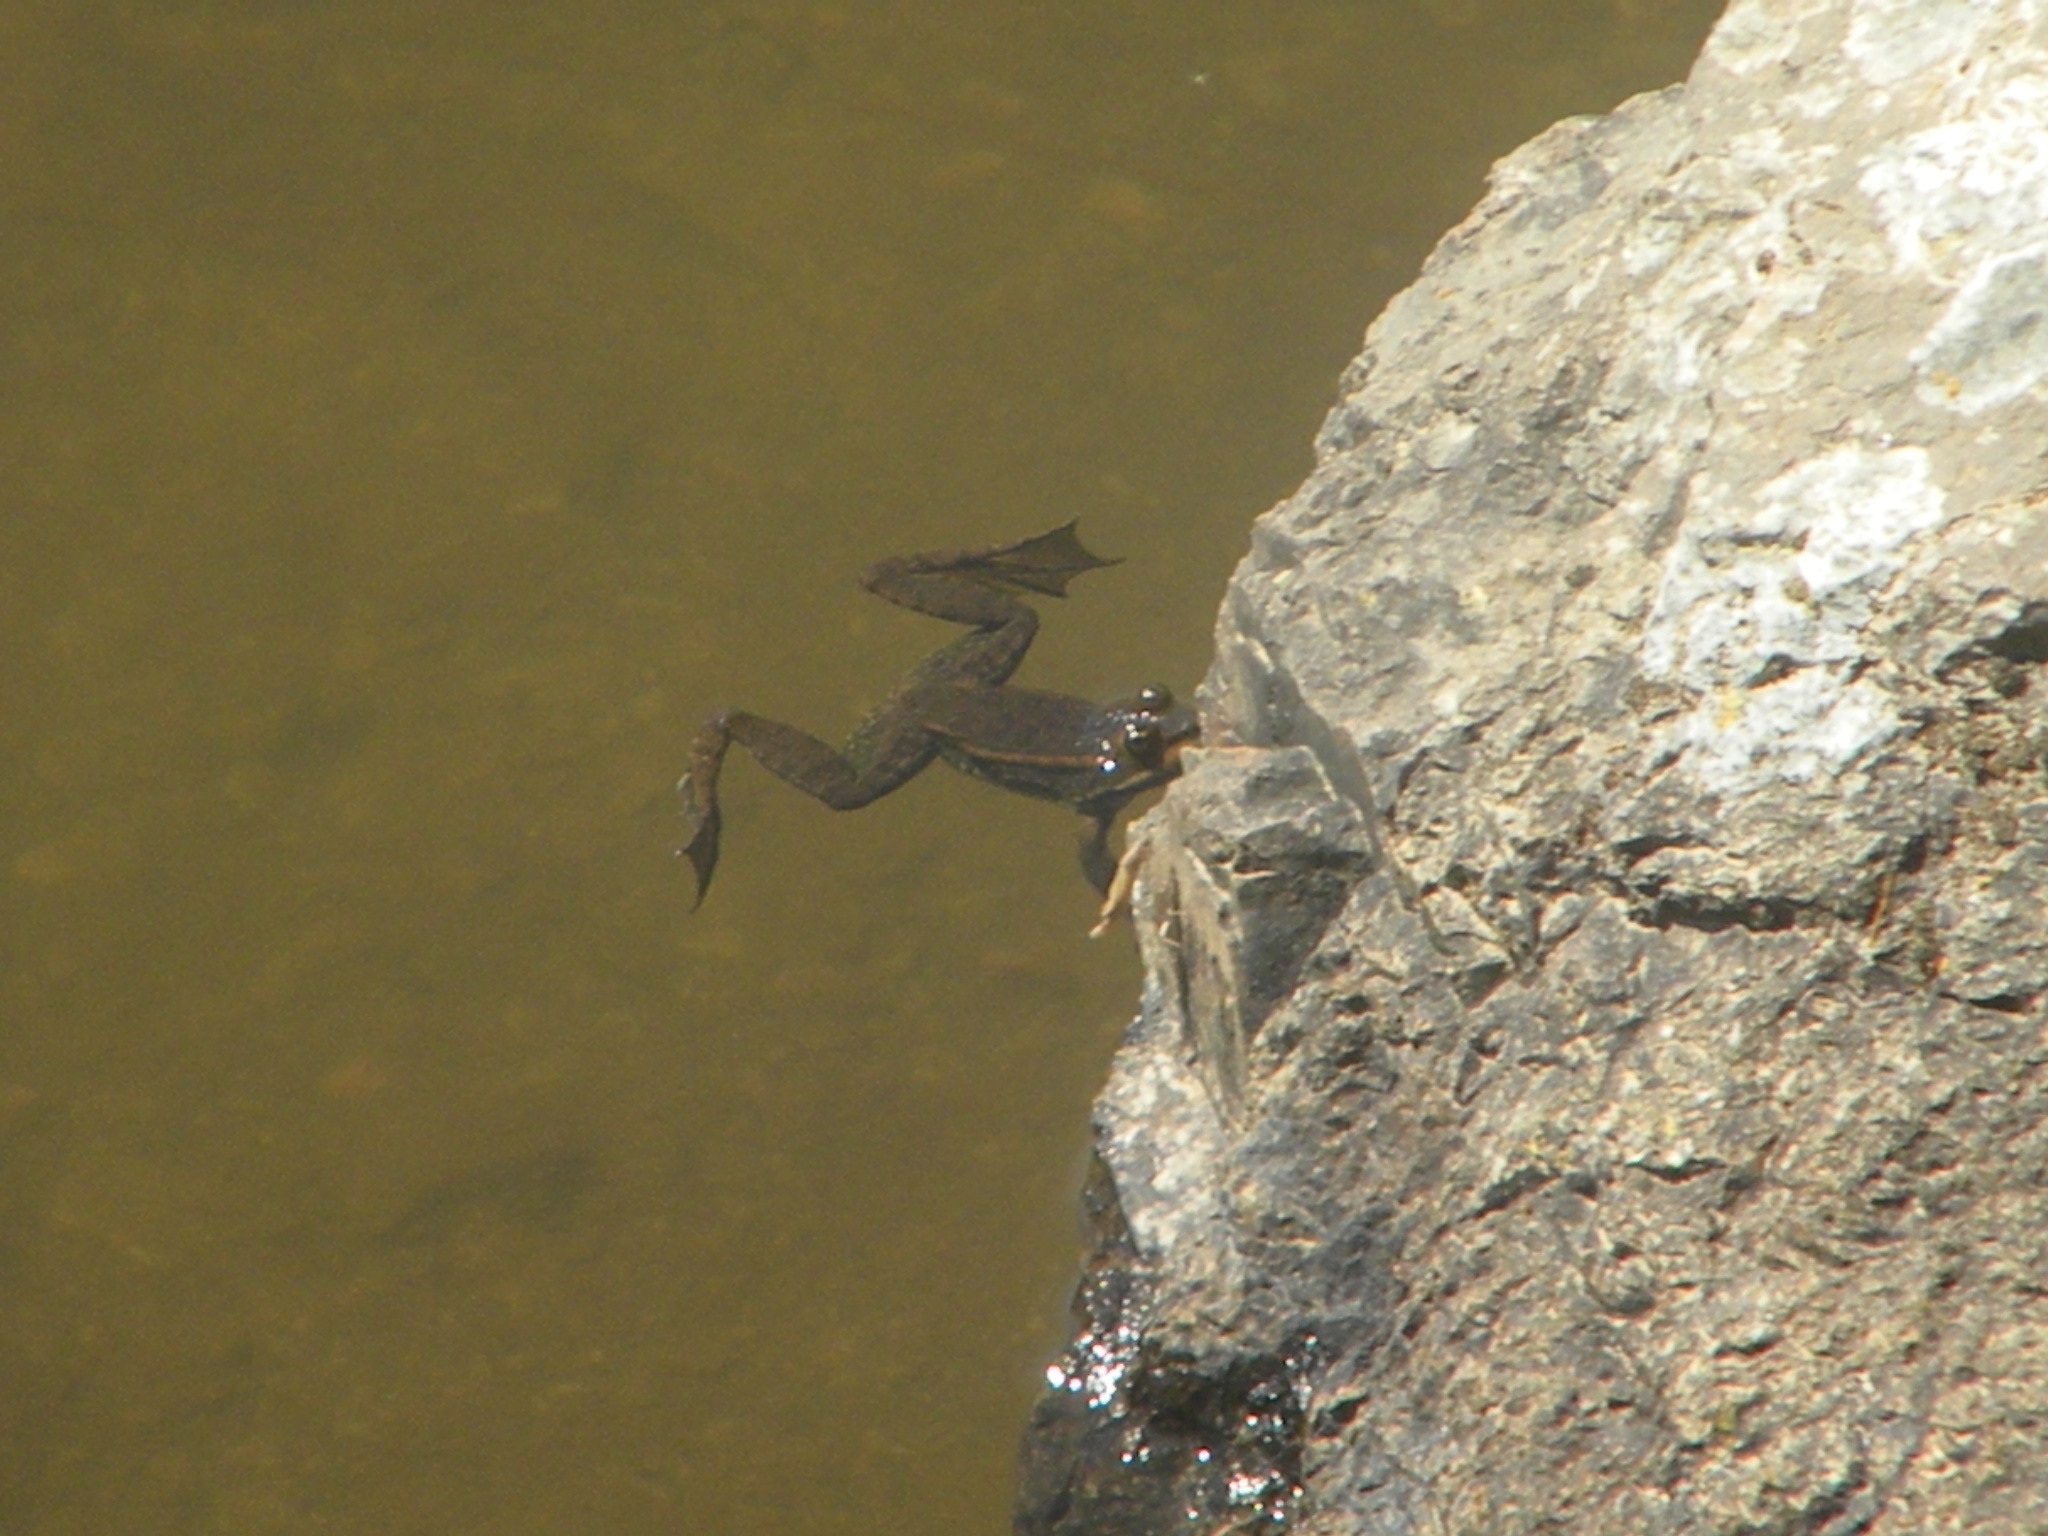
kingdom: Animalia
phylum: Chordata
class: Amphibia
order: Anura
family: Ranidae
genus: Pelophylax
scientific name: Pelophylax ridibundus
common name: Marsh frog
